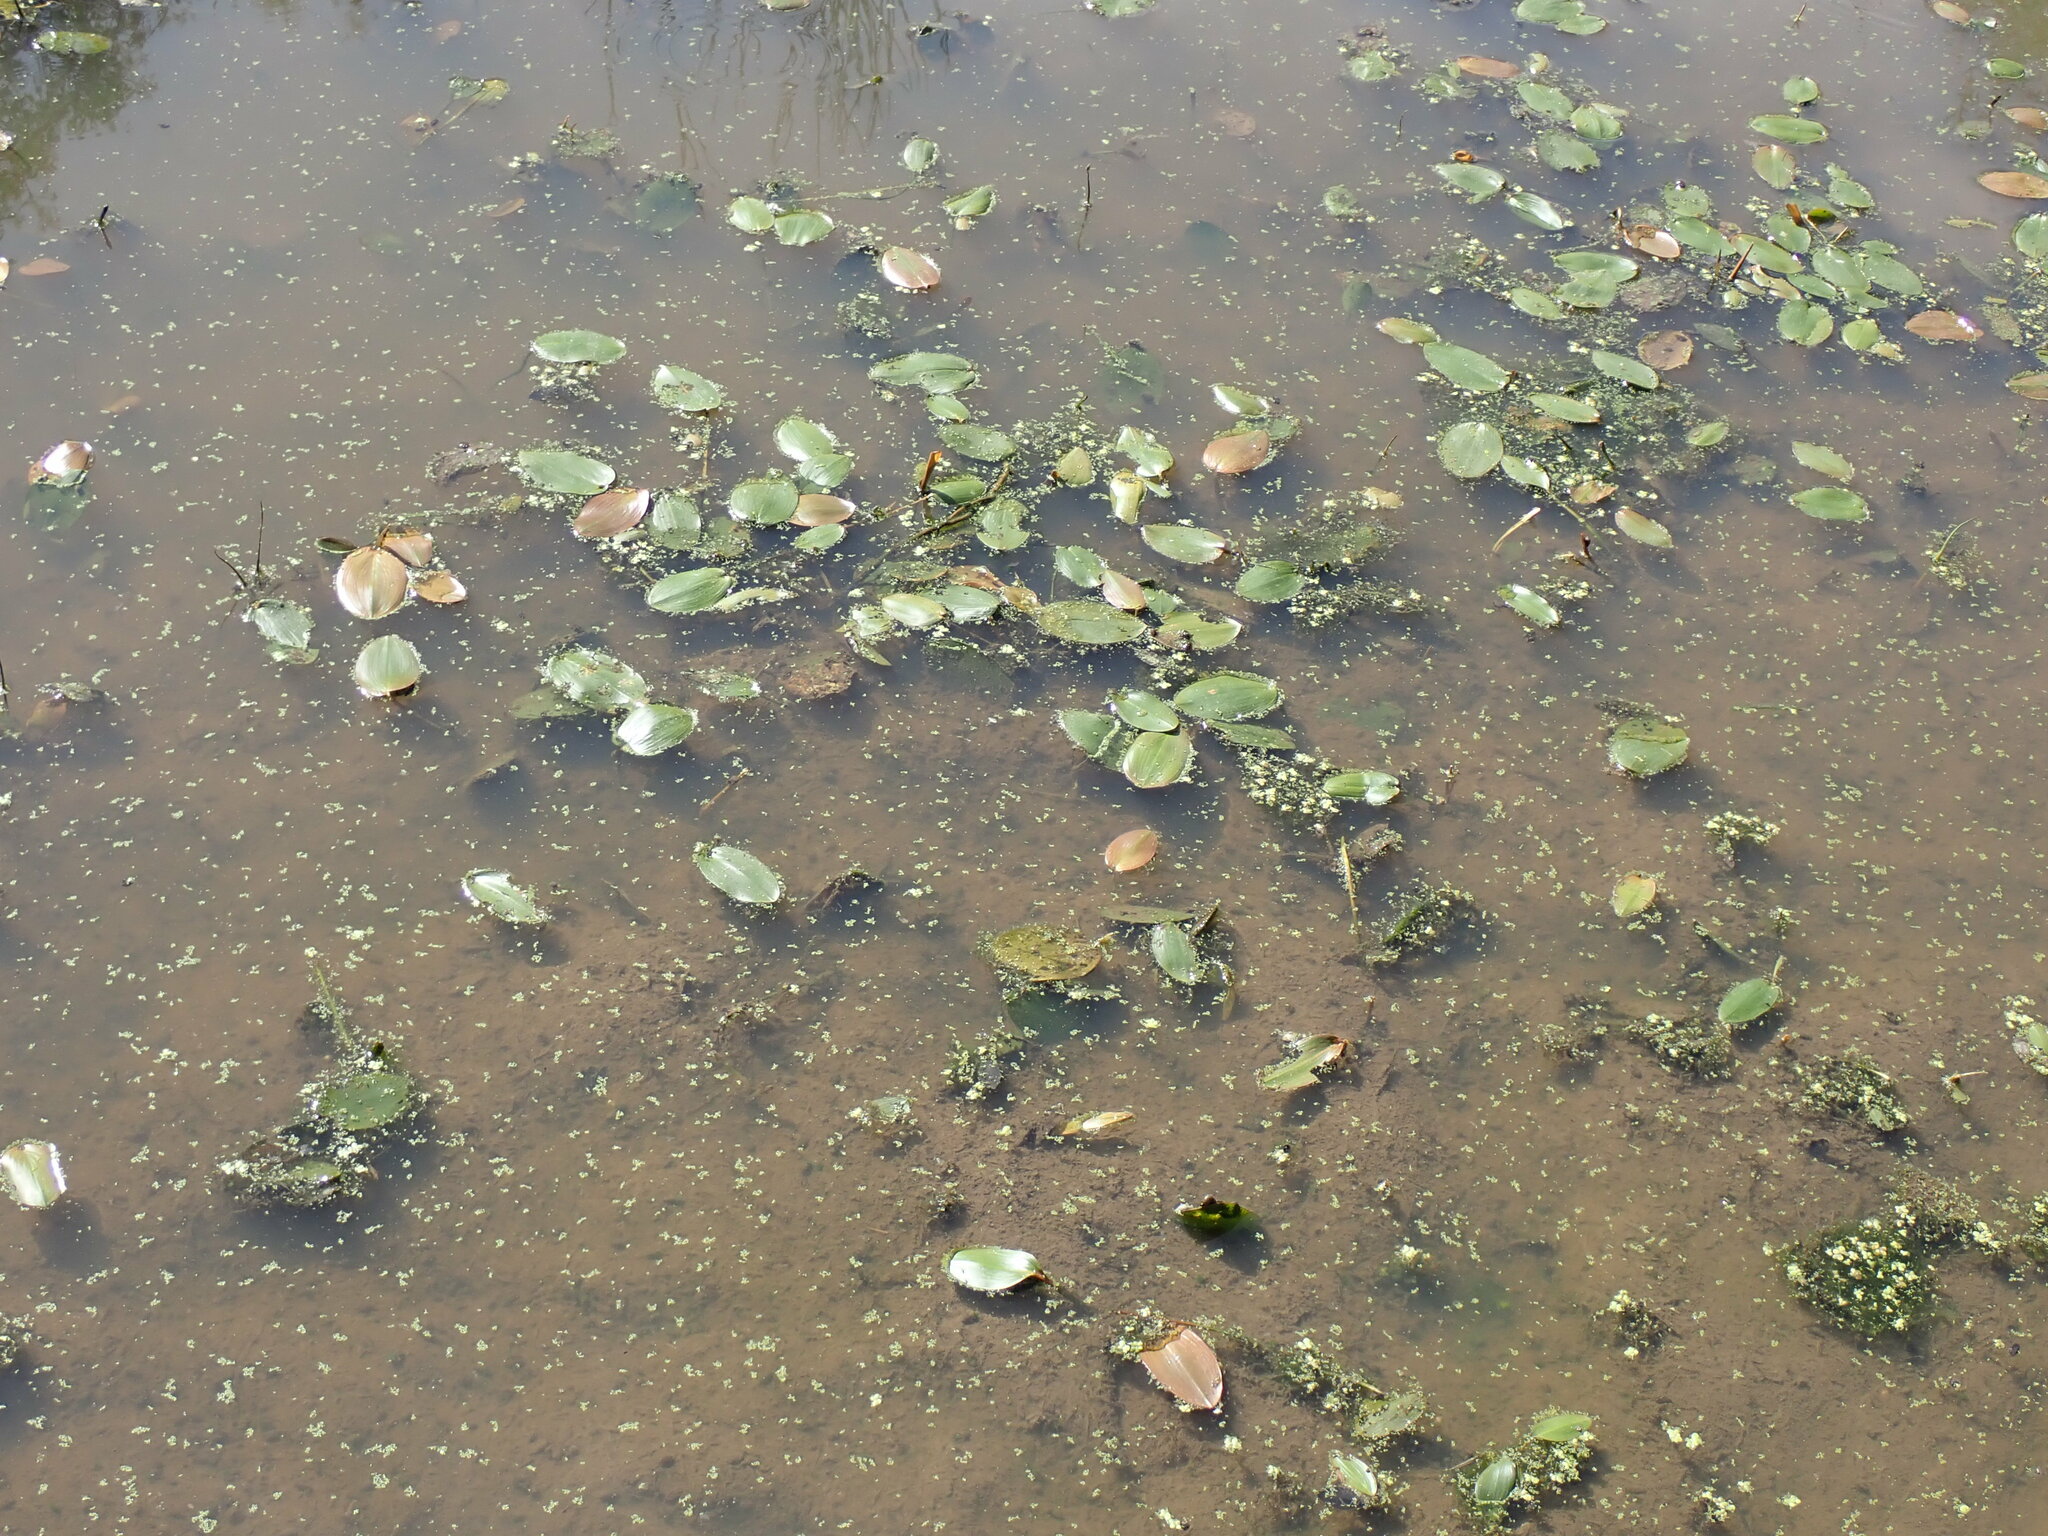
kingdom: Plantae
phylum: Tracheophyta
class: Liliopsida
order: Alismatales
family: Potamogetonaceae
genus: Potamogeton
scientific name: Potamogeton natans
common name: Broad-leaved pondweed
